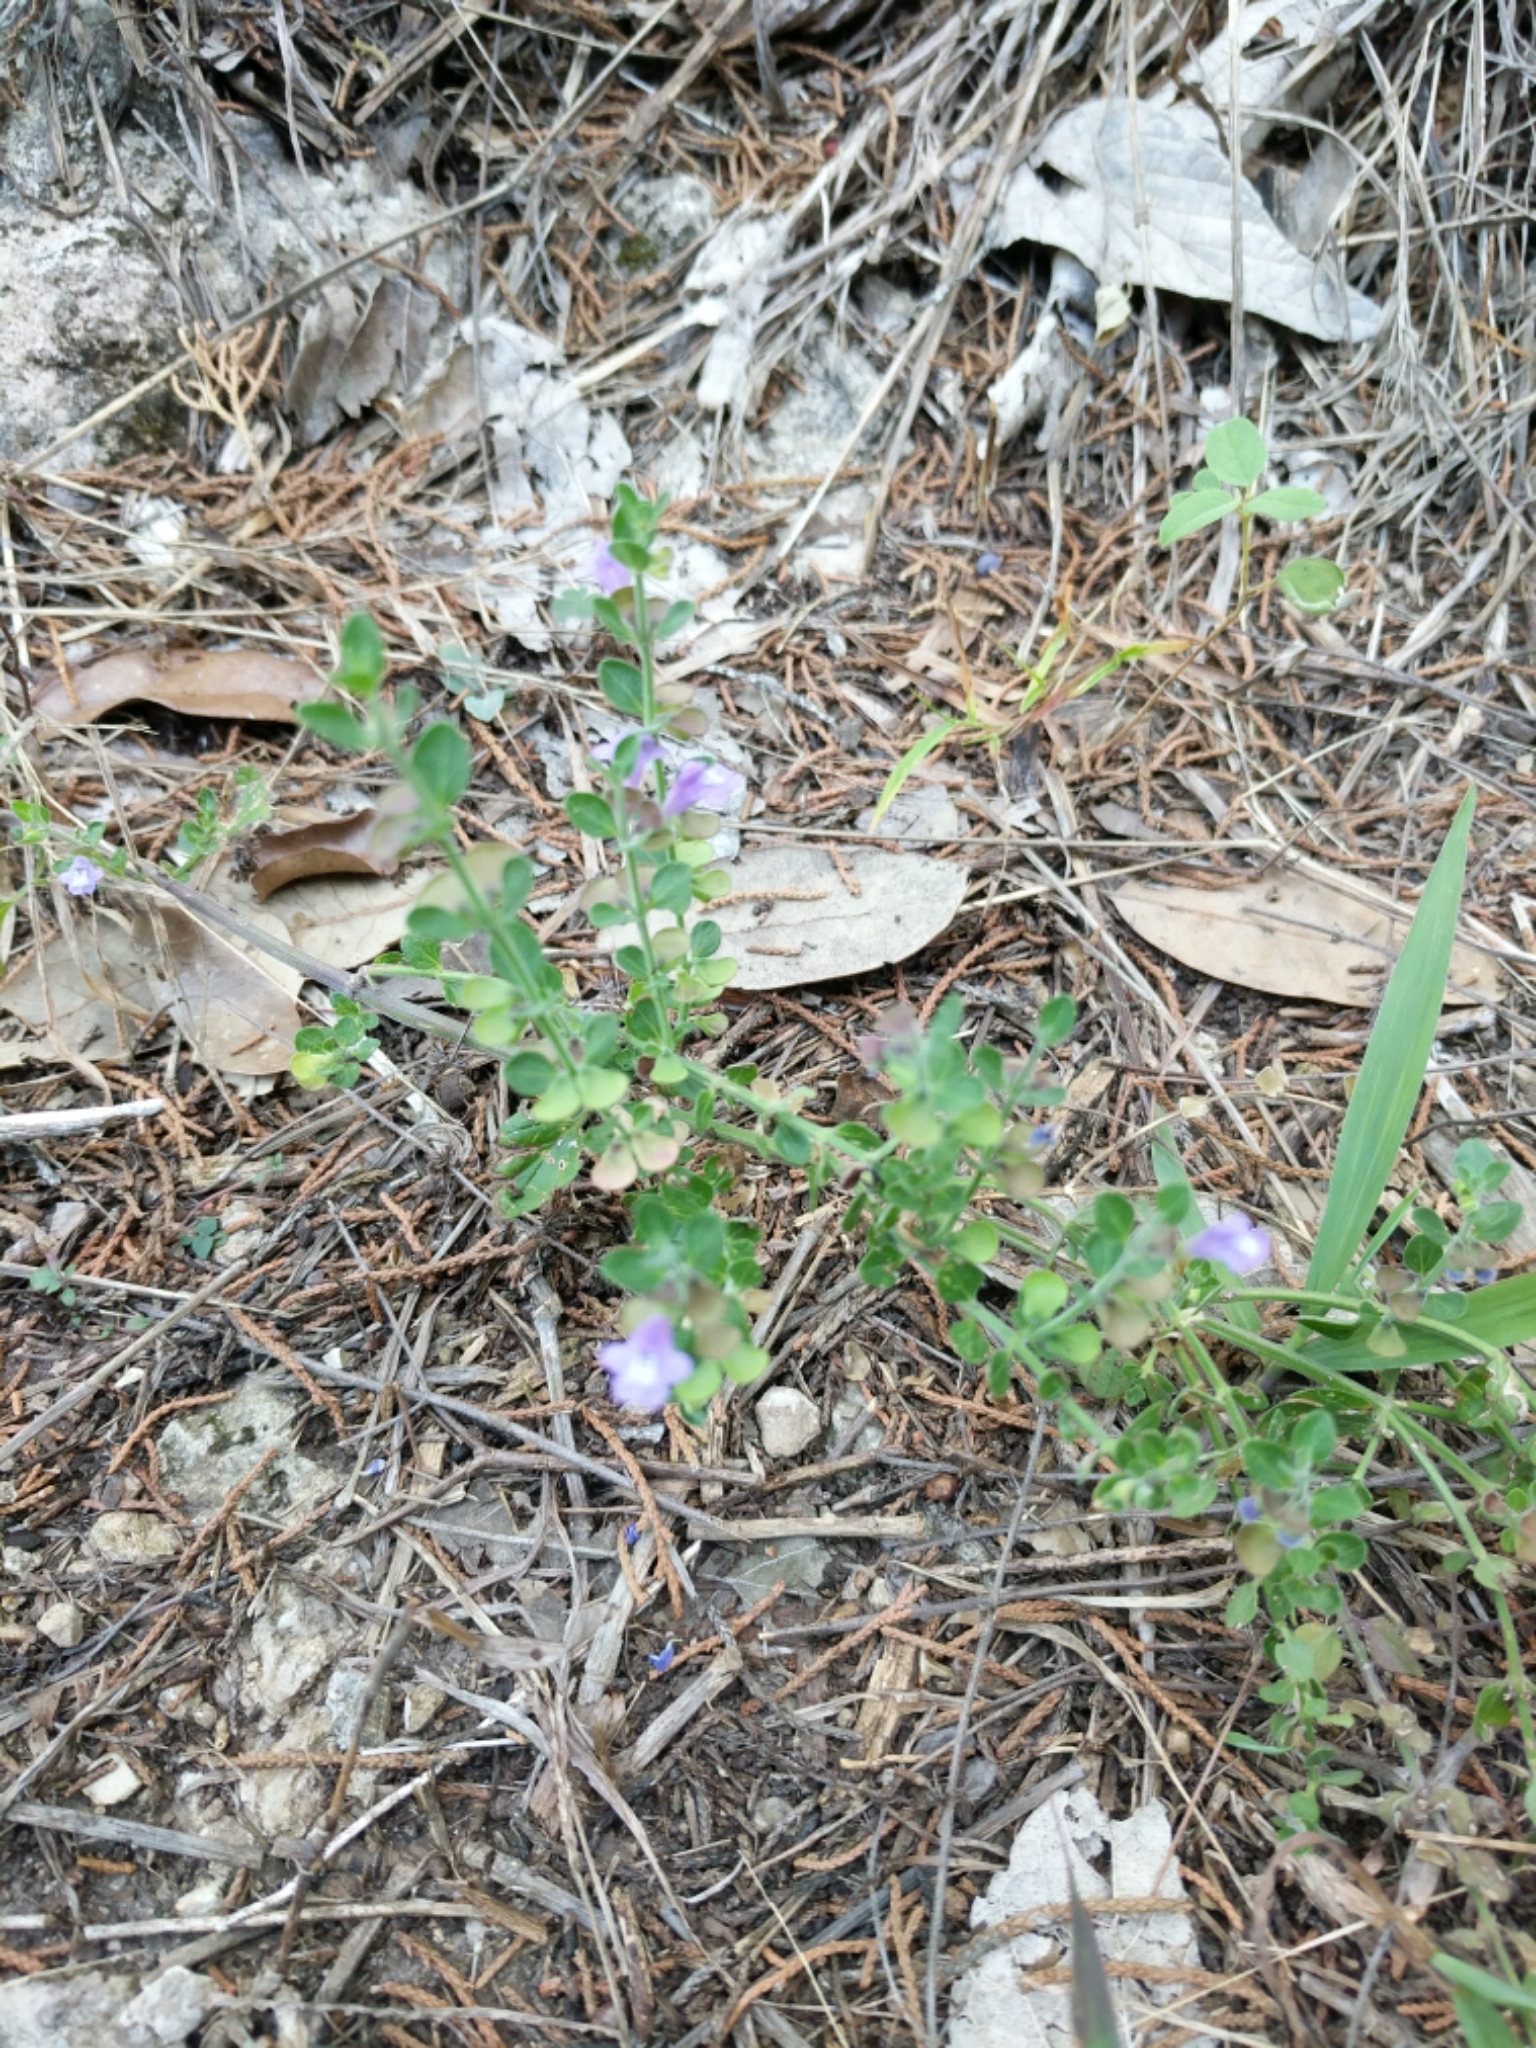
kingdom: Plantae
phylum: Tracheophyta
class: Magnoliopsida
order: Lamiales
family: Lamiaceae
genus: Scutellaria
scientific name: Scutellaria drummondii
